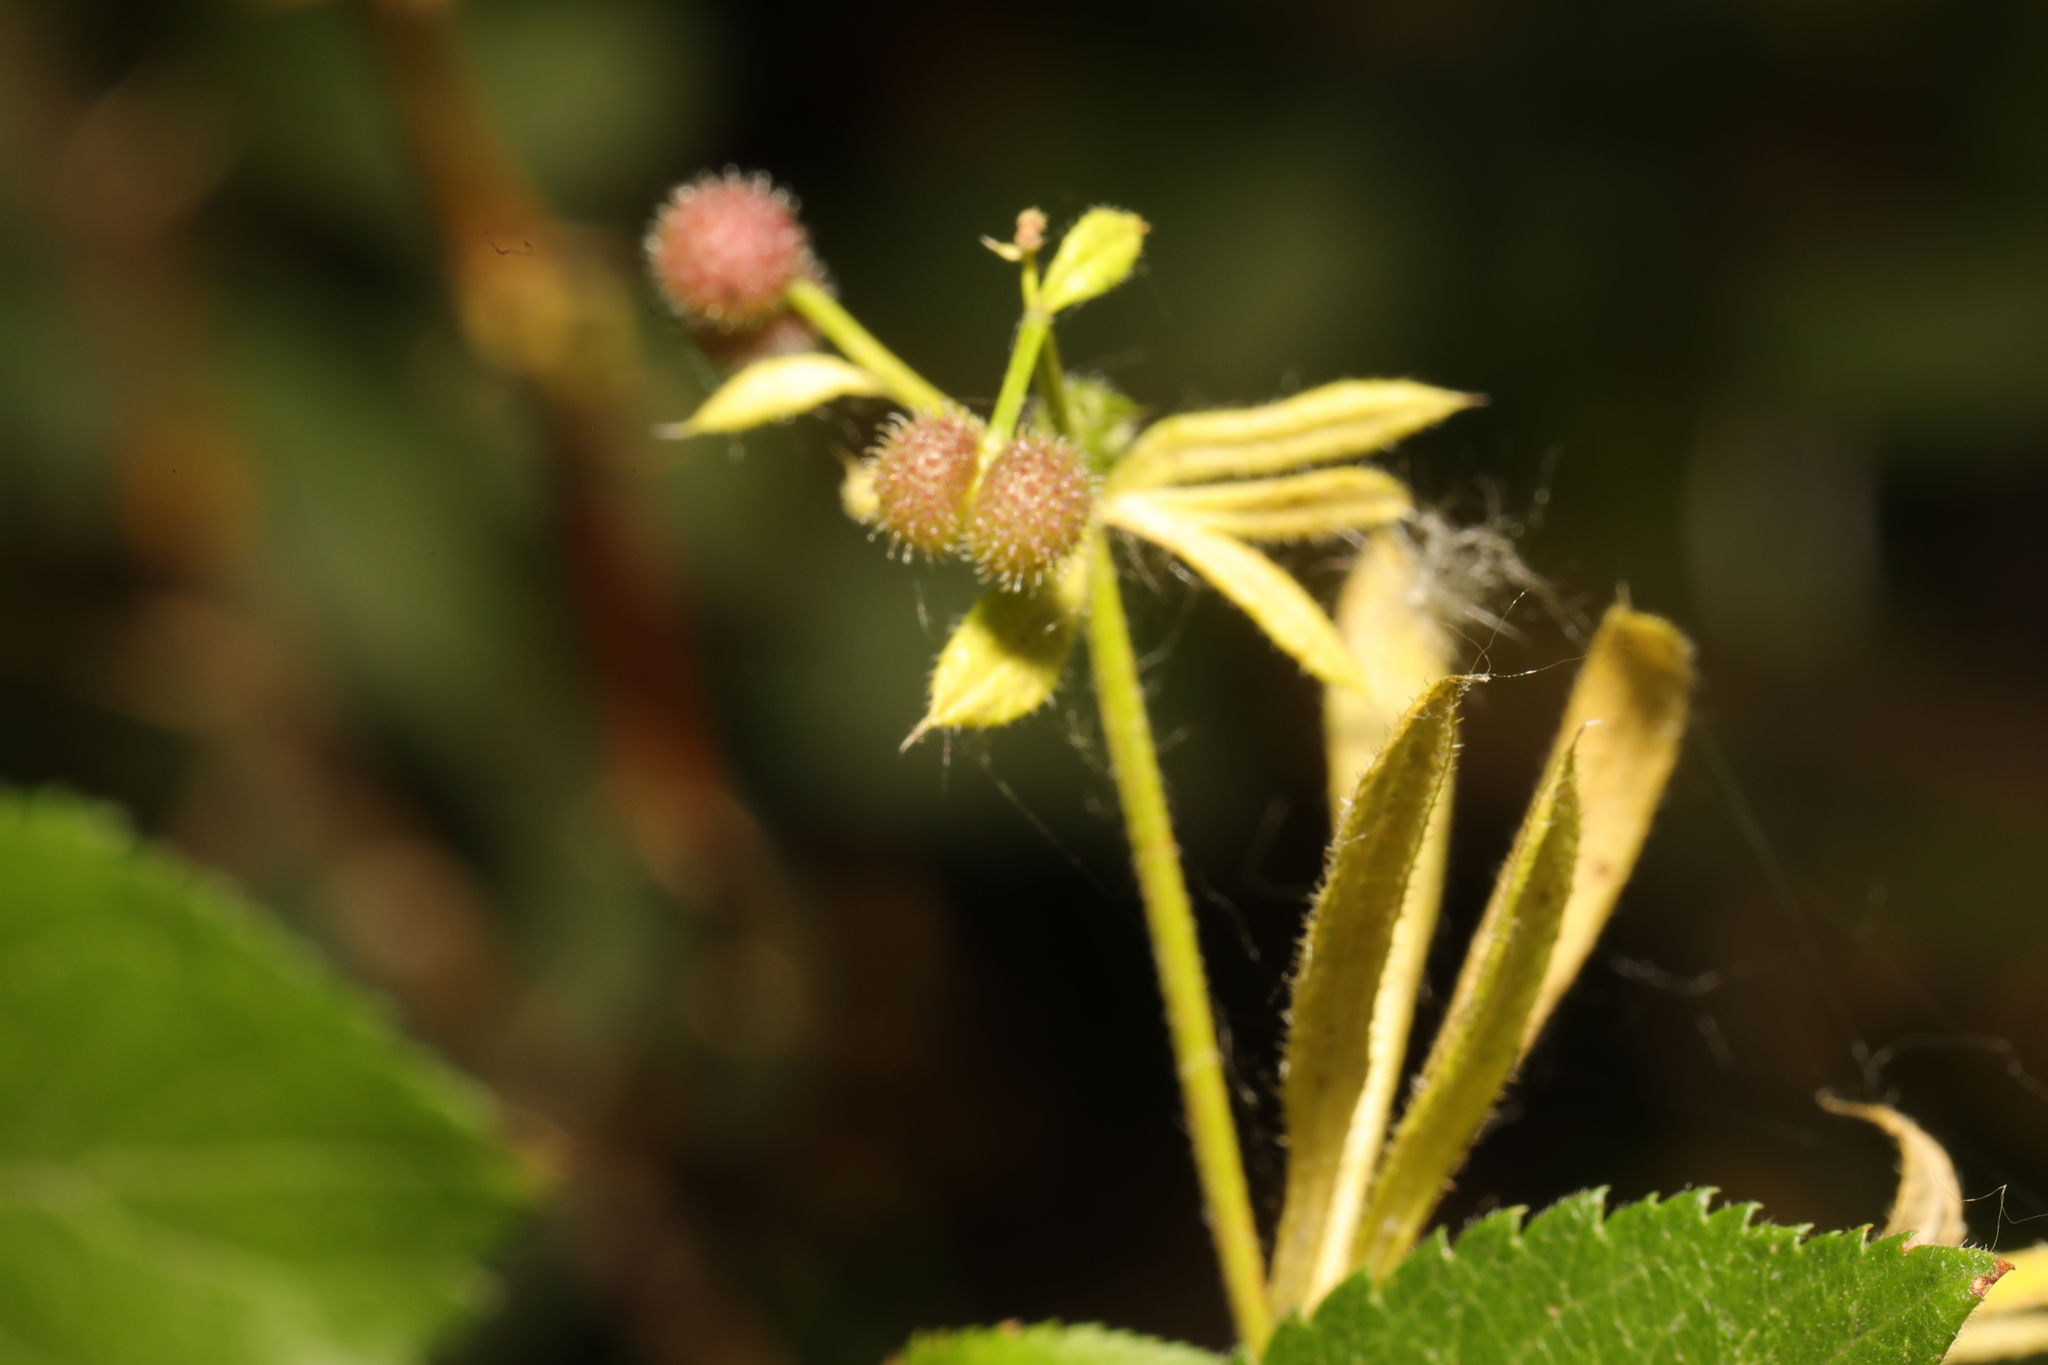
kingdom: Plantae
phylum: Tracheophyta
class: Magnoliopsida
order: Gentianales
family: Rubiaceae
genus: Galium
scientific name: Galium aparine
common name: Cleavers
